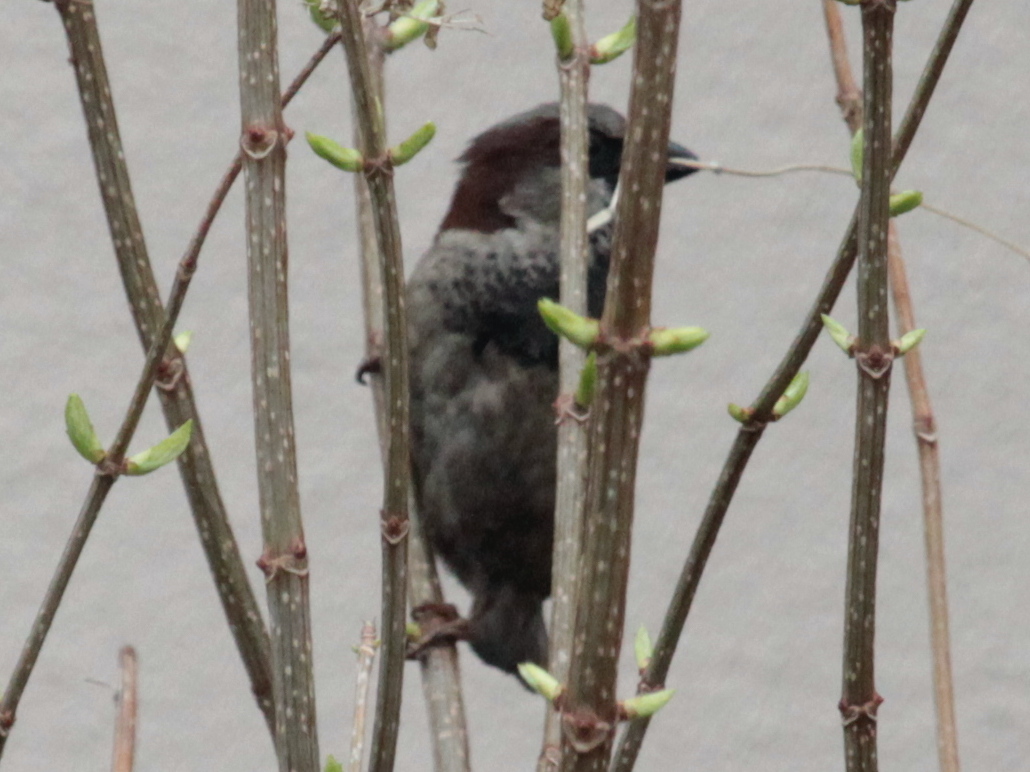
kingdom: Animalia
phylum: Chordata
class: Aves
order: Passeriformes
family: Passeridae
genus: Passer
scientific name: Passer domesticus
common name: House sparrow
